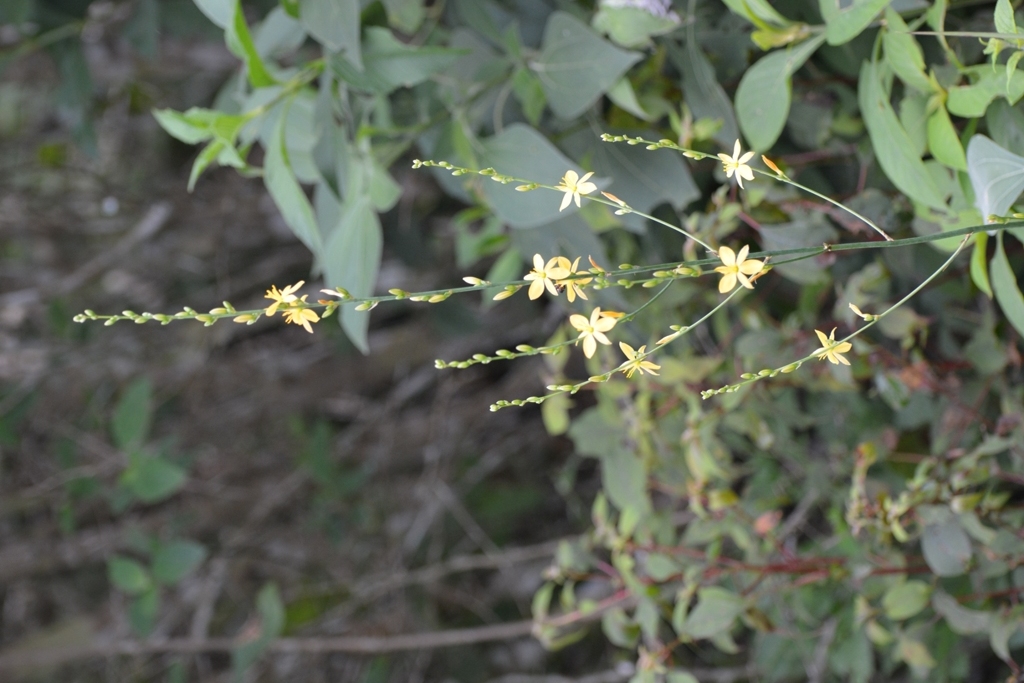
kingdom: Plantae
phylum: Tracheophyta
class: Liliopsida
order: Asparagales
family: Asparagaceae
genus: Echeandia
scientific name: Echeandia breedlovei
